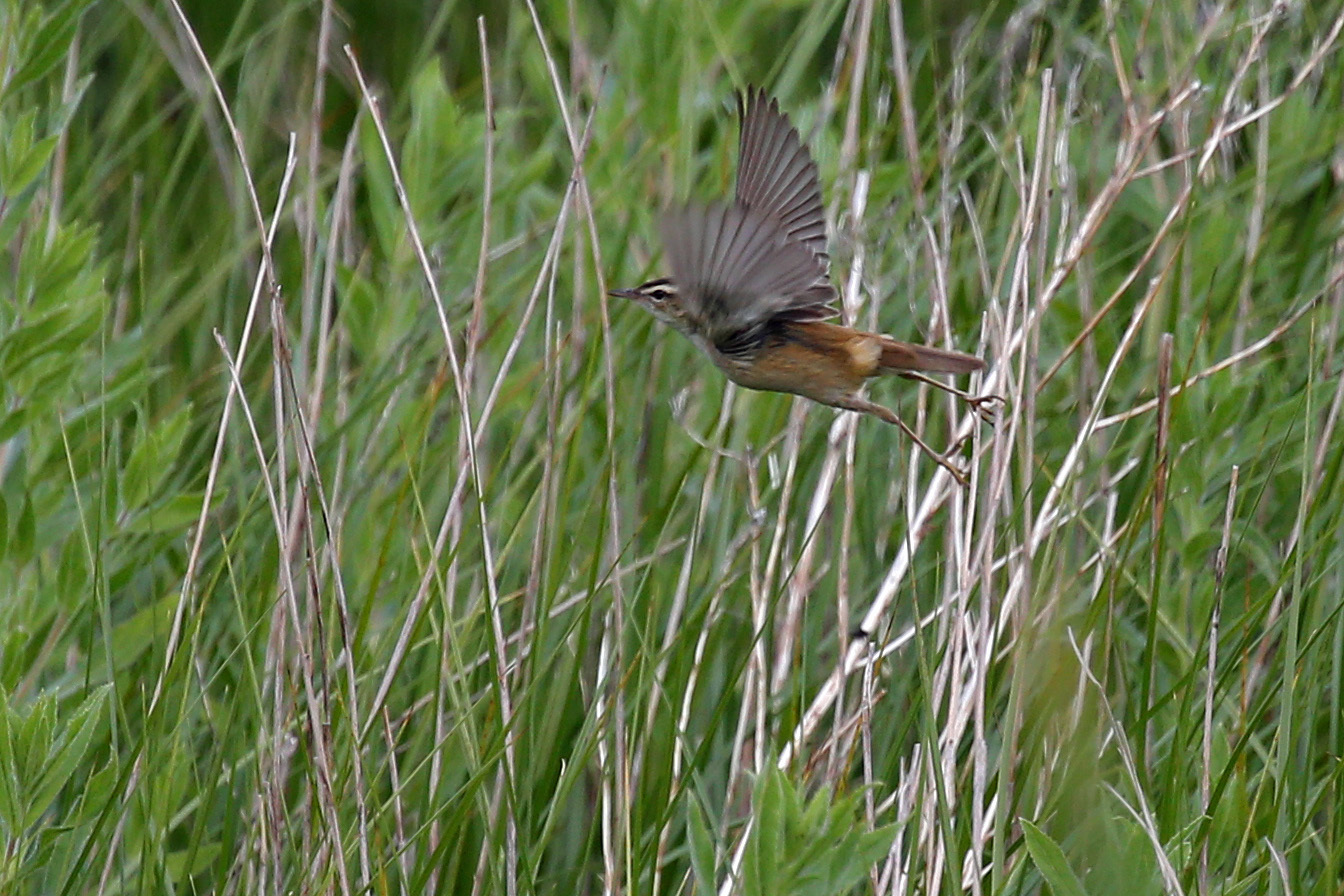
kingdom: Animalia
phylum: Chordata
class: Aves
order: Passeriformes
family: Acrocephalidae
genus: Acrocephalus
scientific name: Acrocephalus schoenobaenus
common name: Sedge warbler
